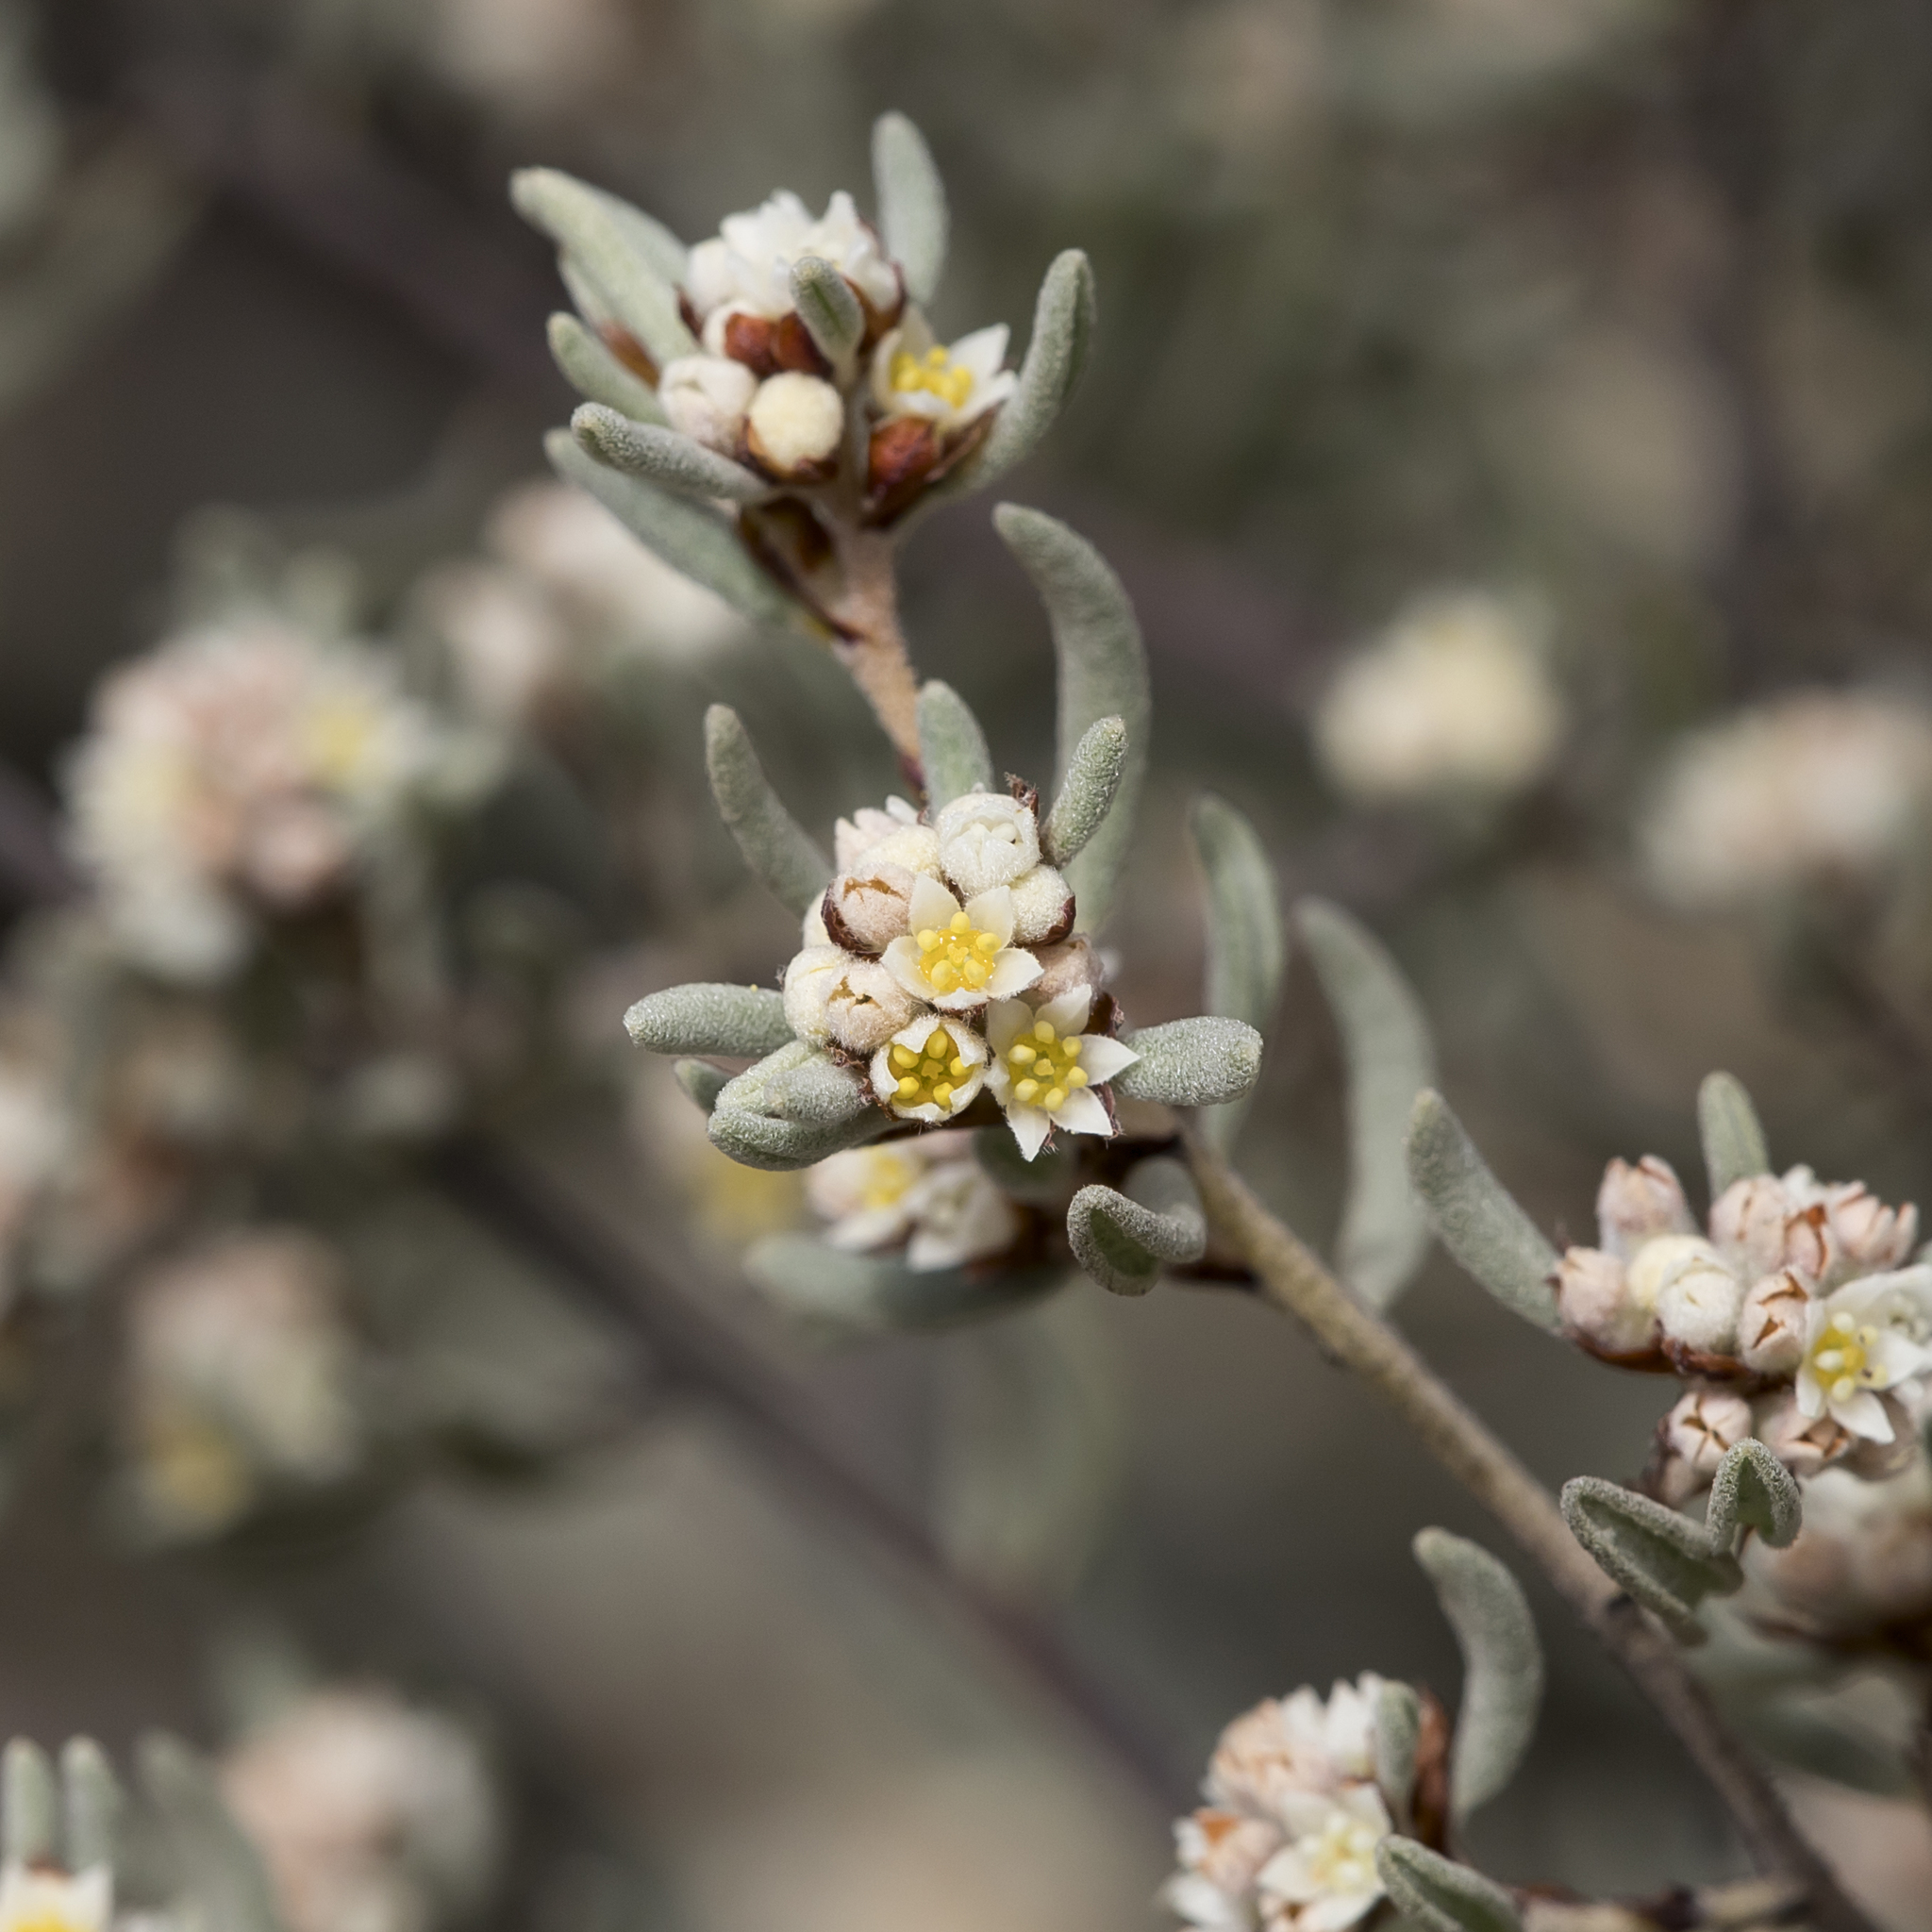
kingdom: Plantae
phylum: Tracheophyta
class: Magnoliopsida
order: Rosales
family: Rhamnaceae
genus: Spyridium
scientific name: Spyridium subochreatum
